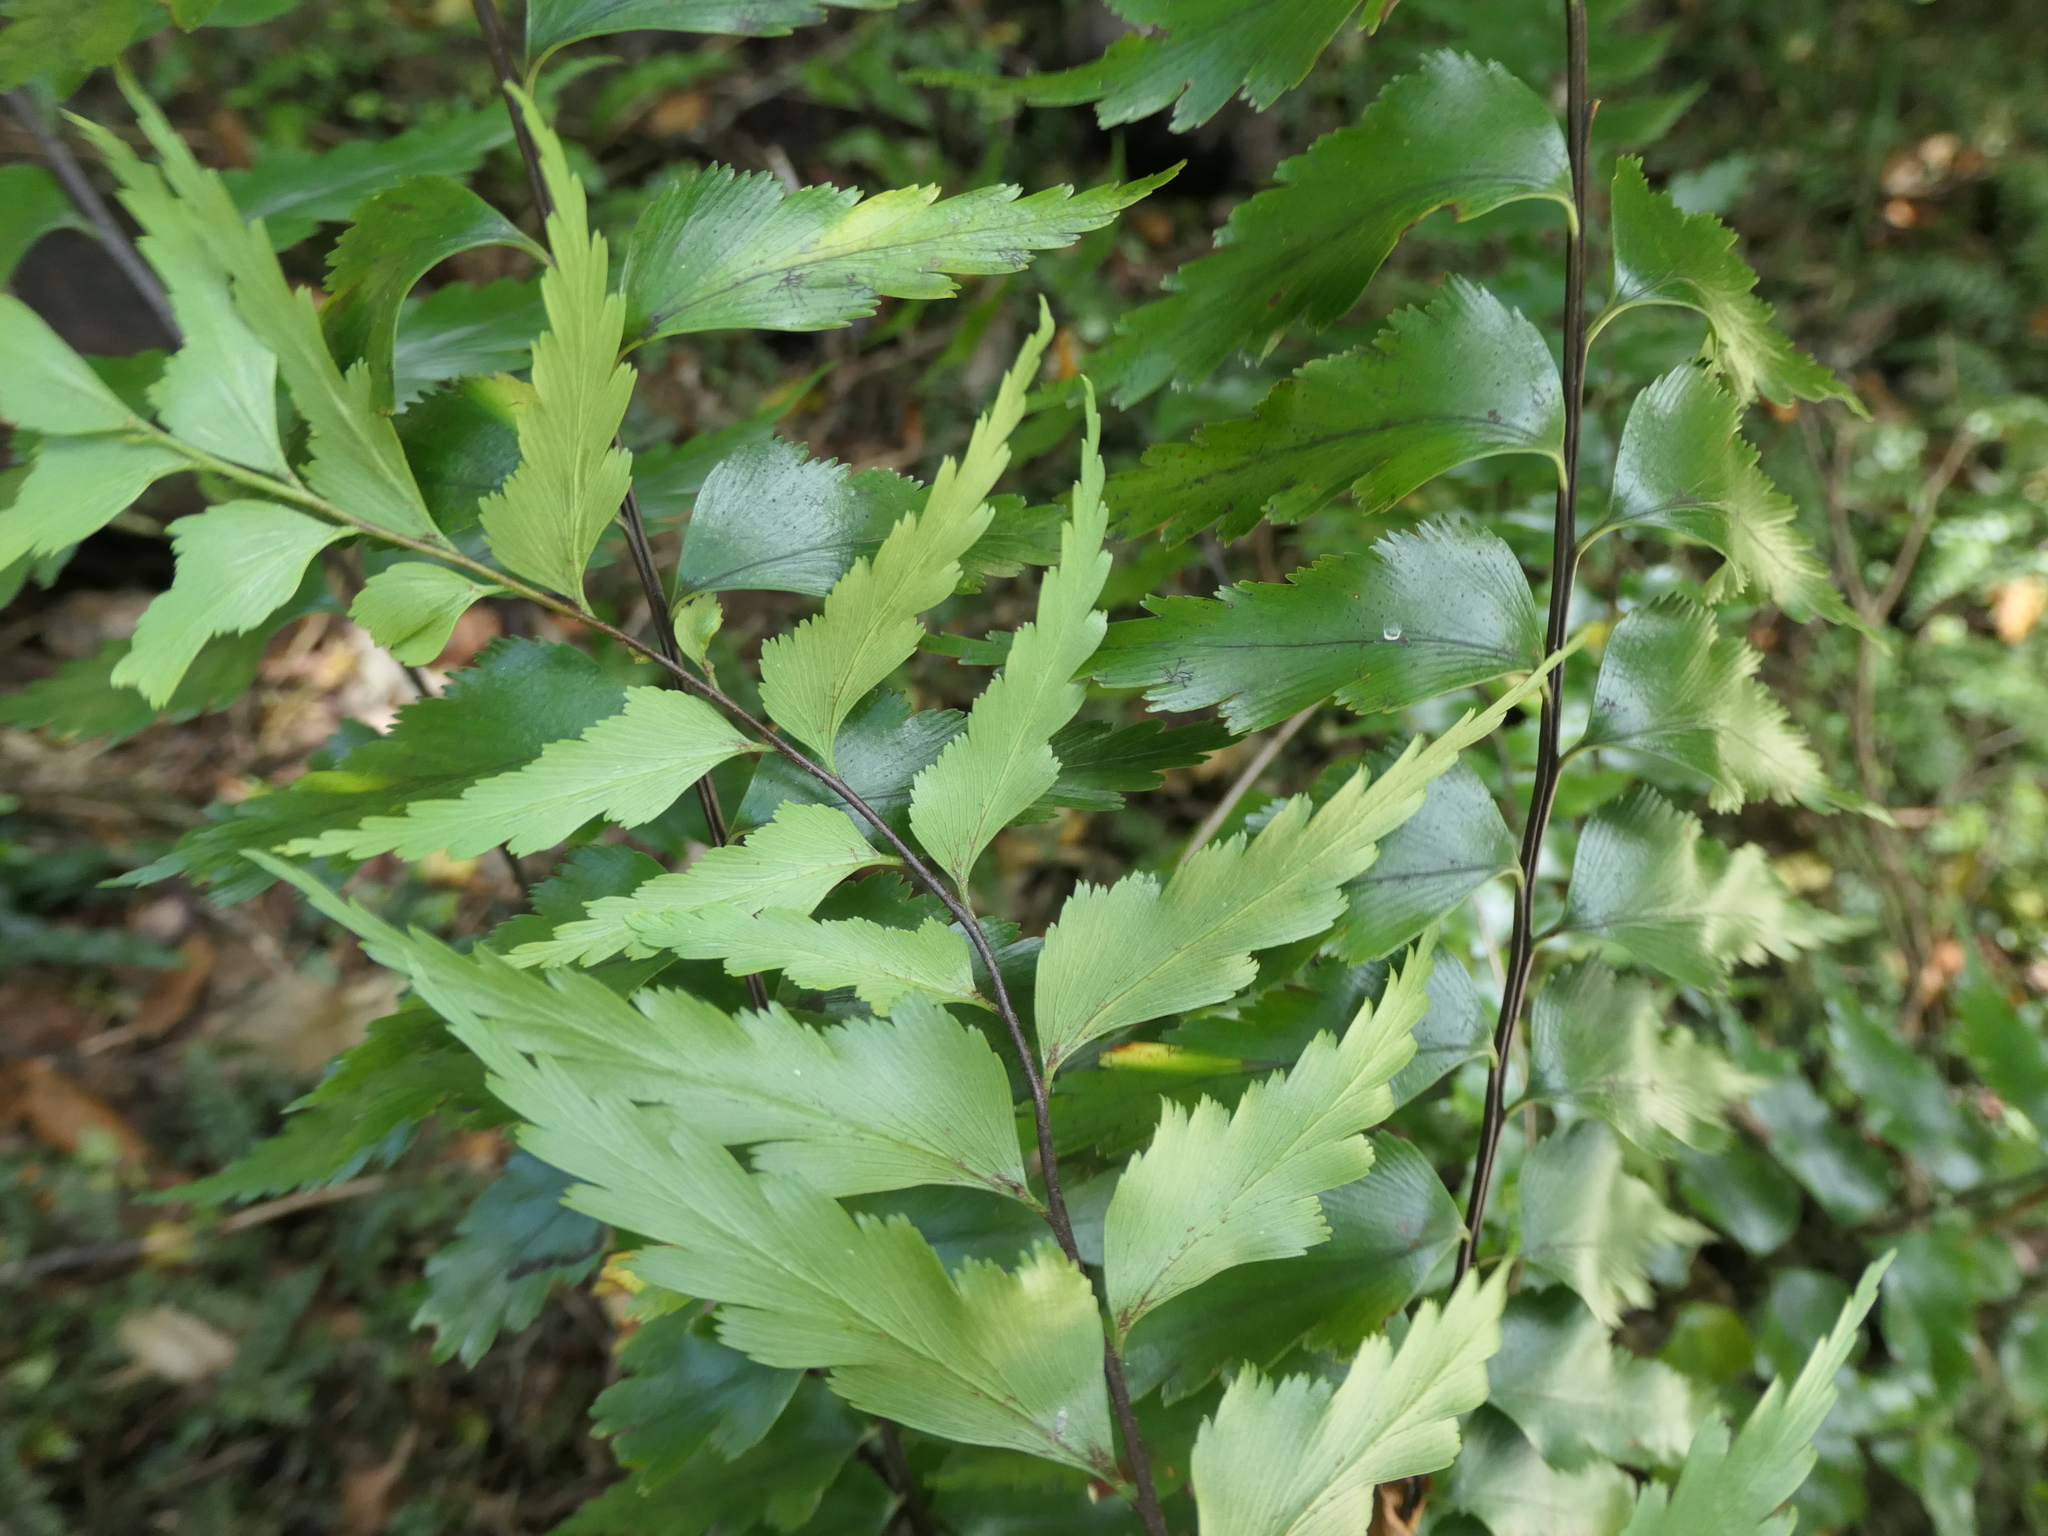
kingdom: Plantae
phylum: Tracheophyta
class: Polypodiopsida
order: Polypodiales
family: Aspleniaceae
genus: Asplenium
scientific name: Asplenium polyodon
